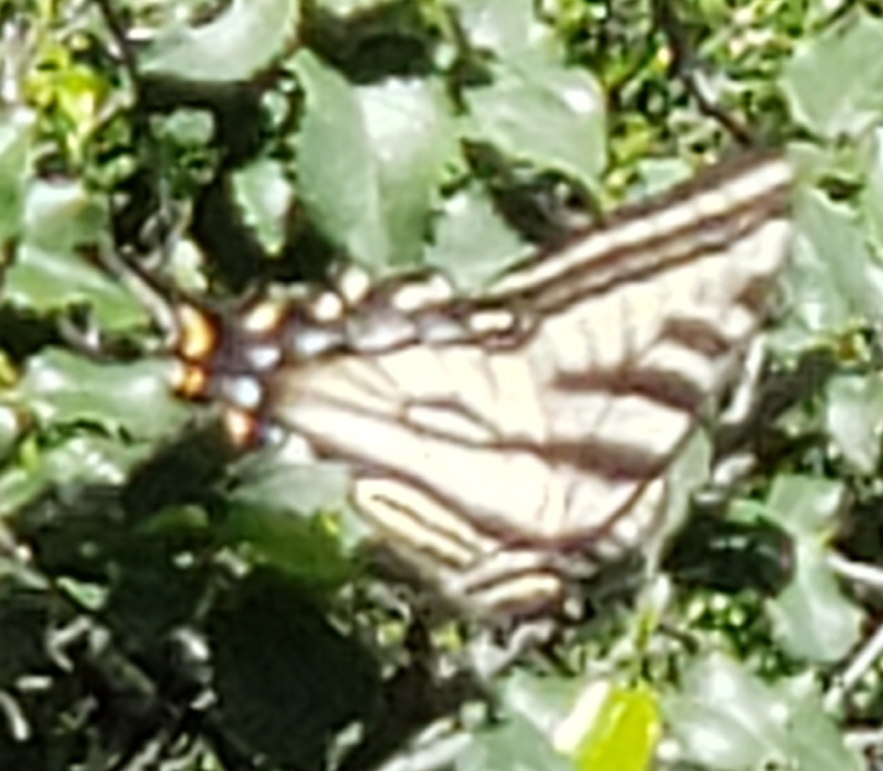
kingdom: Animalia
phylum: Arthropoda
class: Insecta
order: Lepidoptera
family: Papilionidae
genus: Papilio
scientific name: Papilio eurymedon
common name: Pale tiger swallowtail
